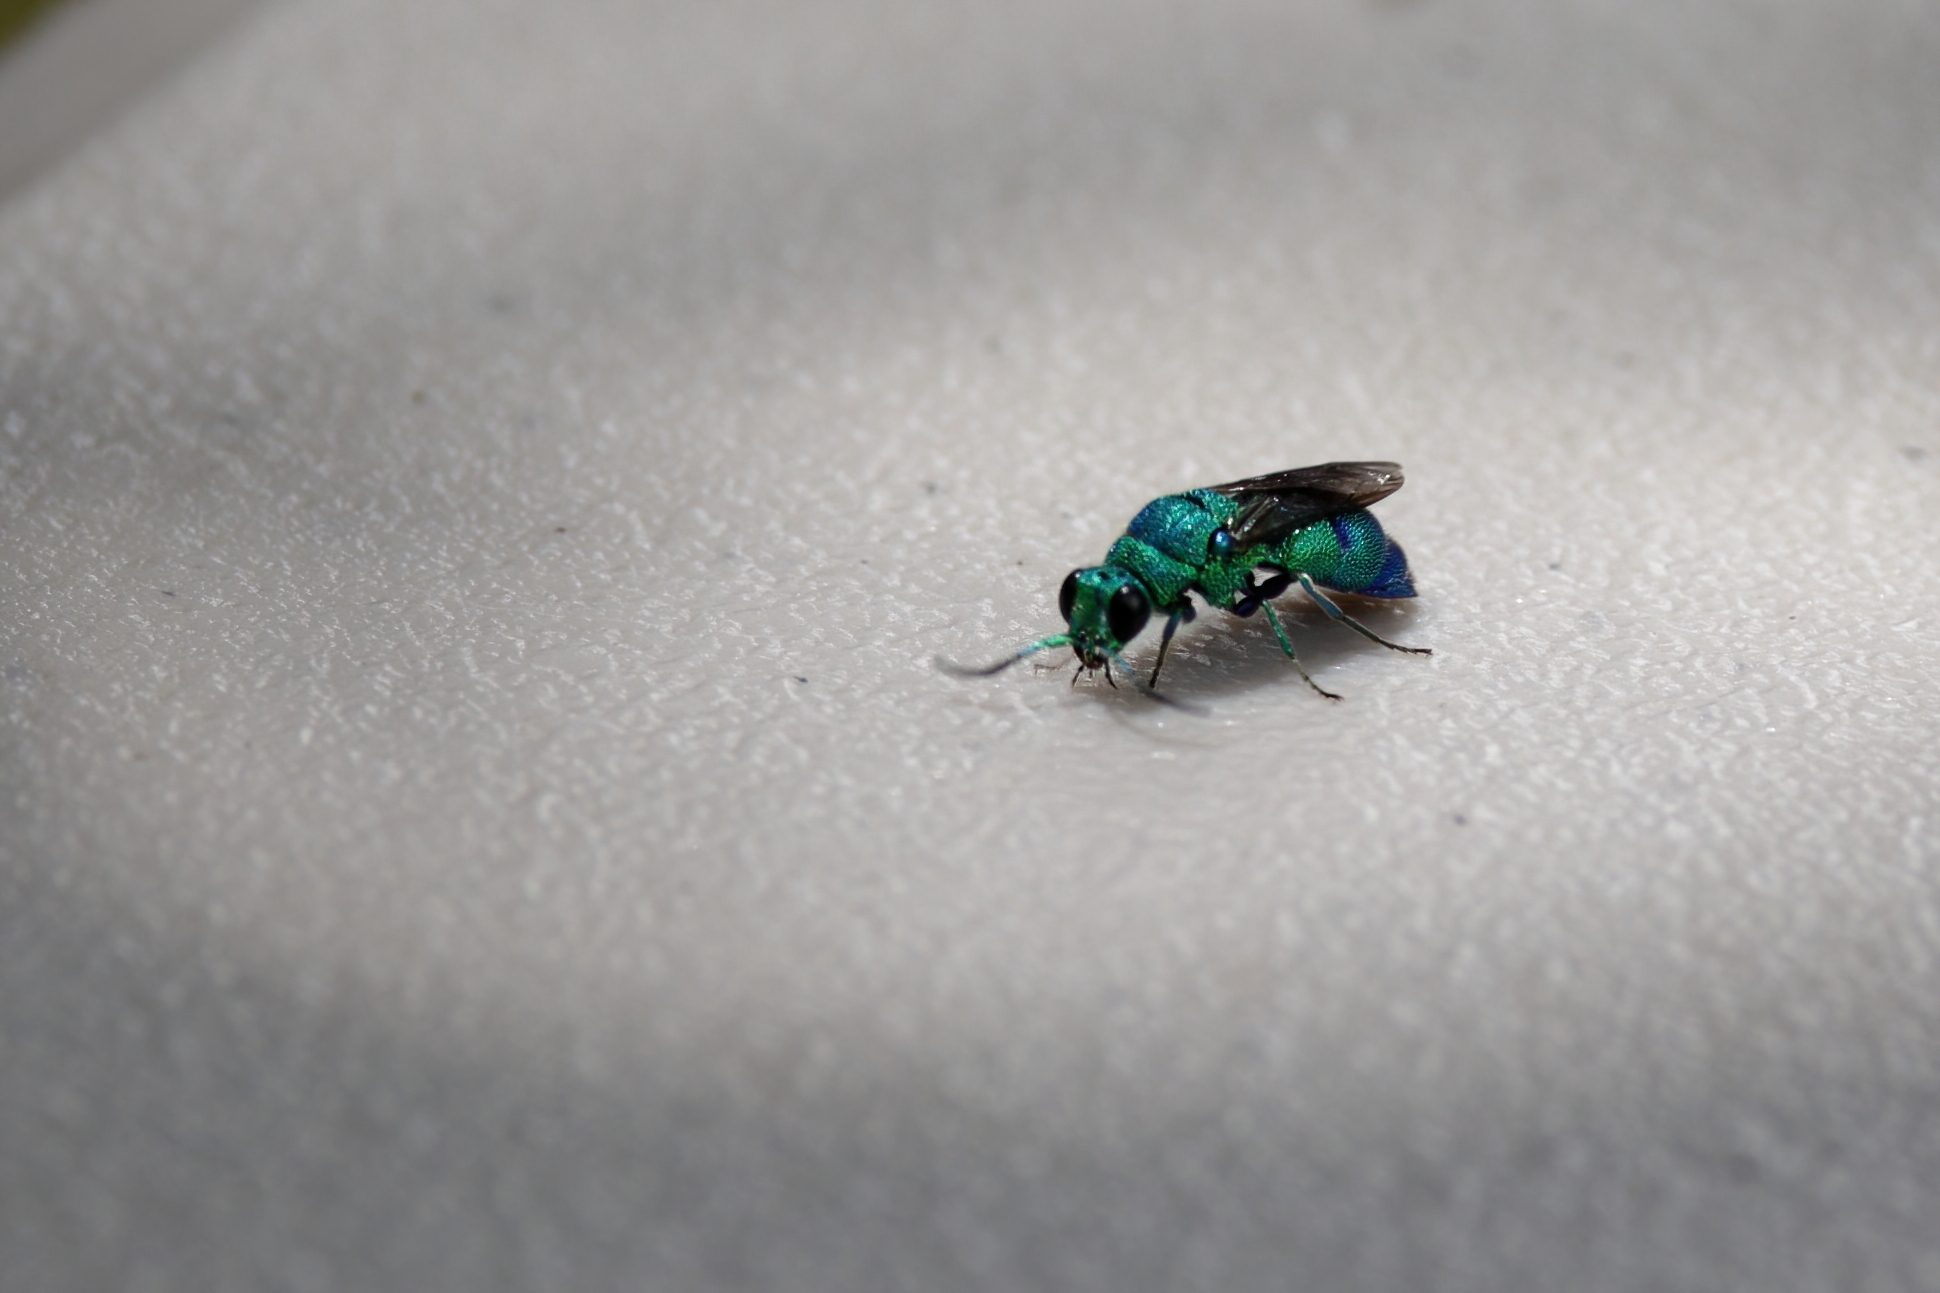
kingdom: Animalia
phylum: Arthropoda
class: Insecta
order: Hymenoptera
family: Chrysididae
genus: Chrysis
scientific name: Chrysis conica
